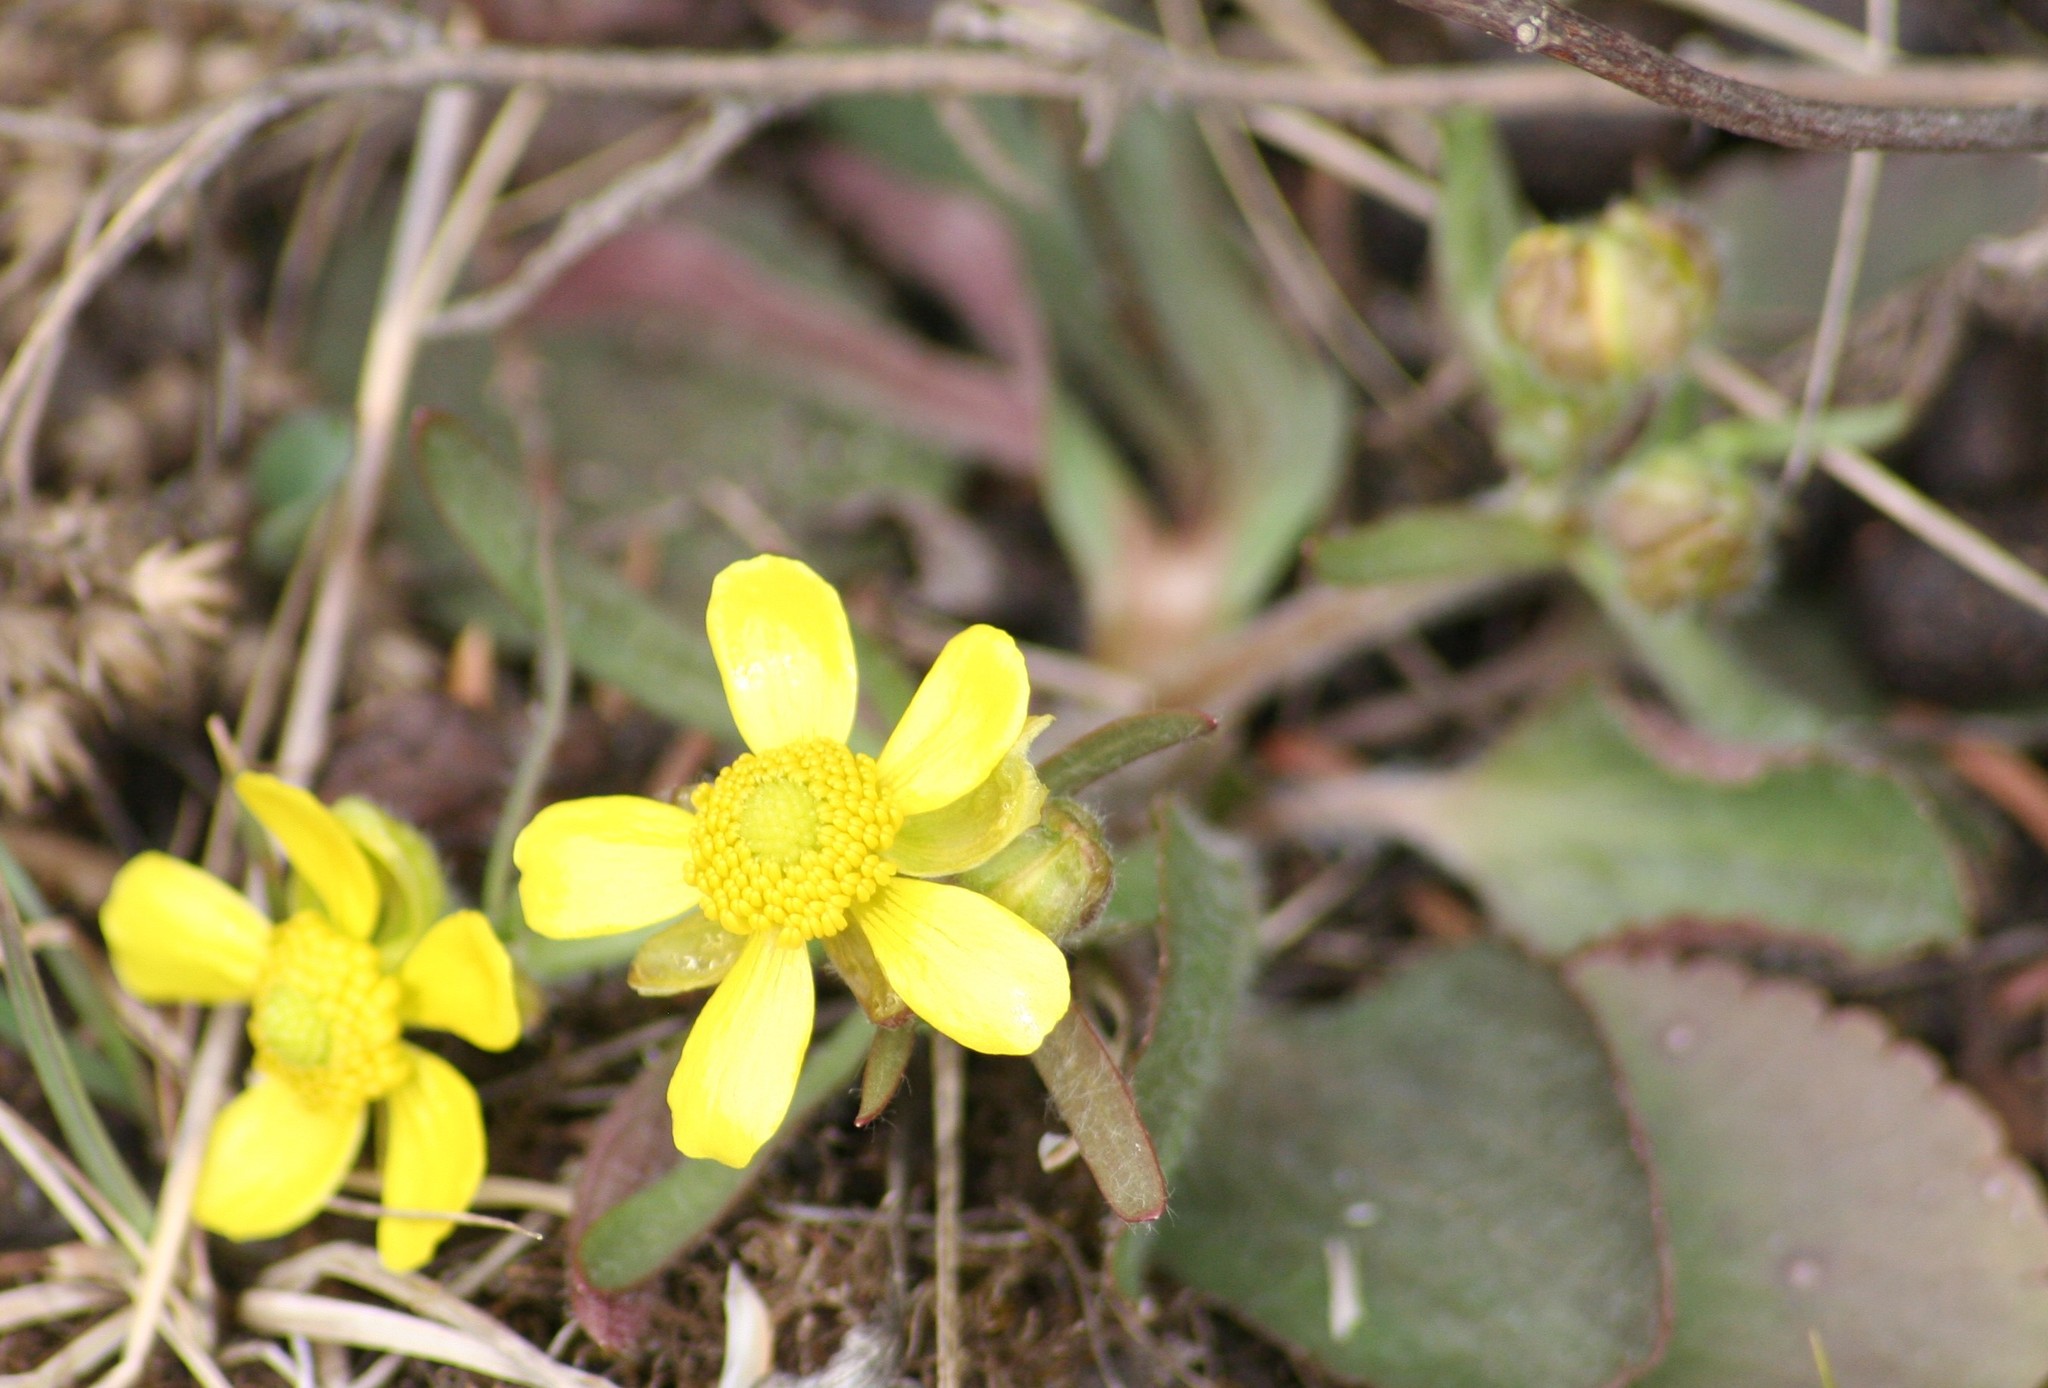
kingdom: Plantae
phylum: Tracheophyta
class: Magnoliopsida
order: Ranunculales
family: Ranunculaceae
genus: Ranunculus
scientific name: Ranunculus rhomboideus
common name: Prairie buttercup
